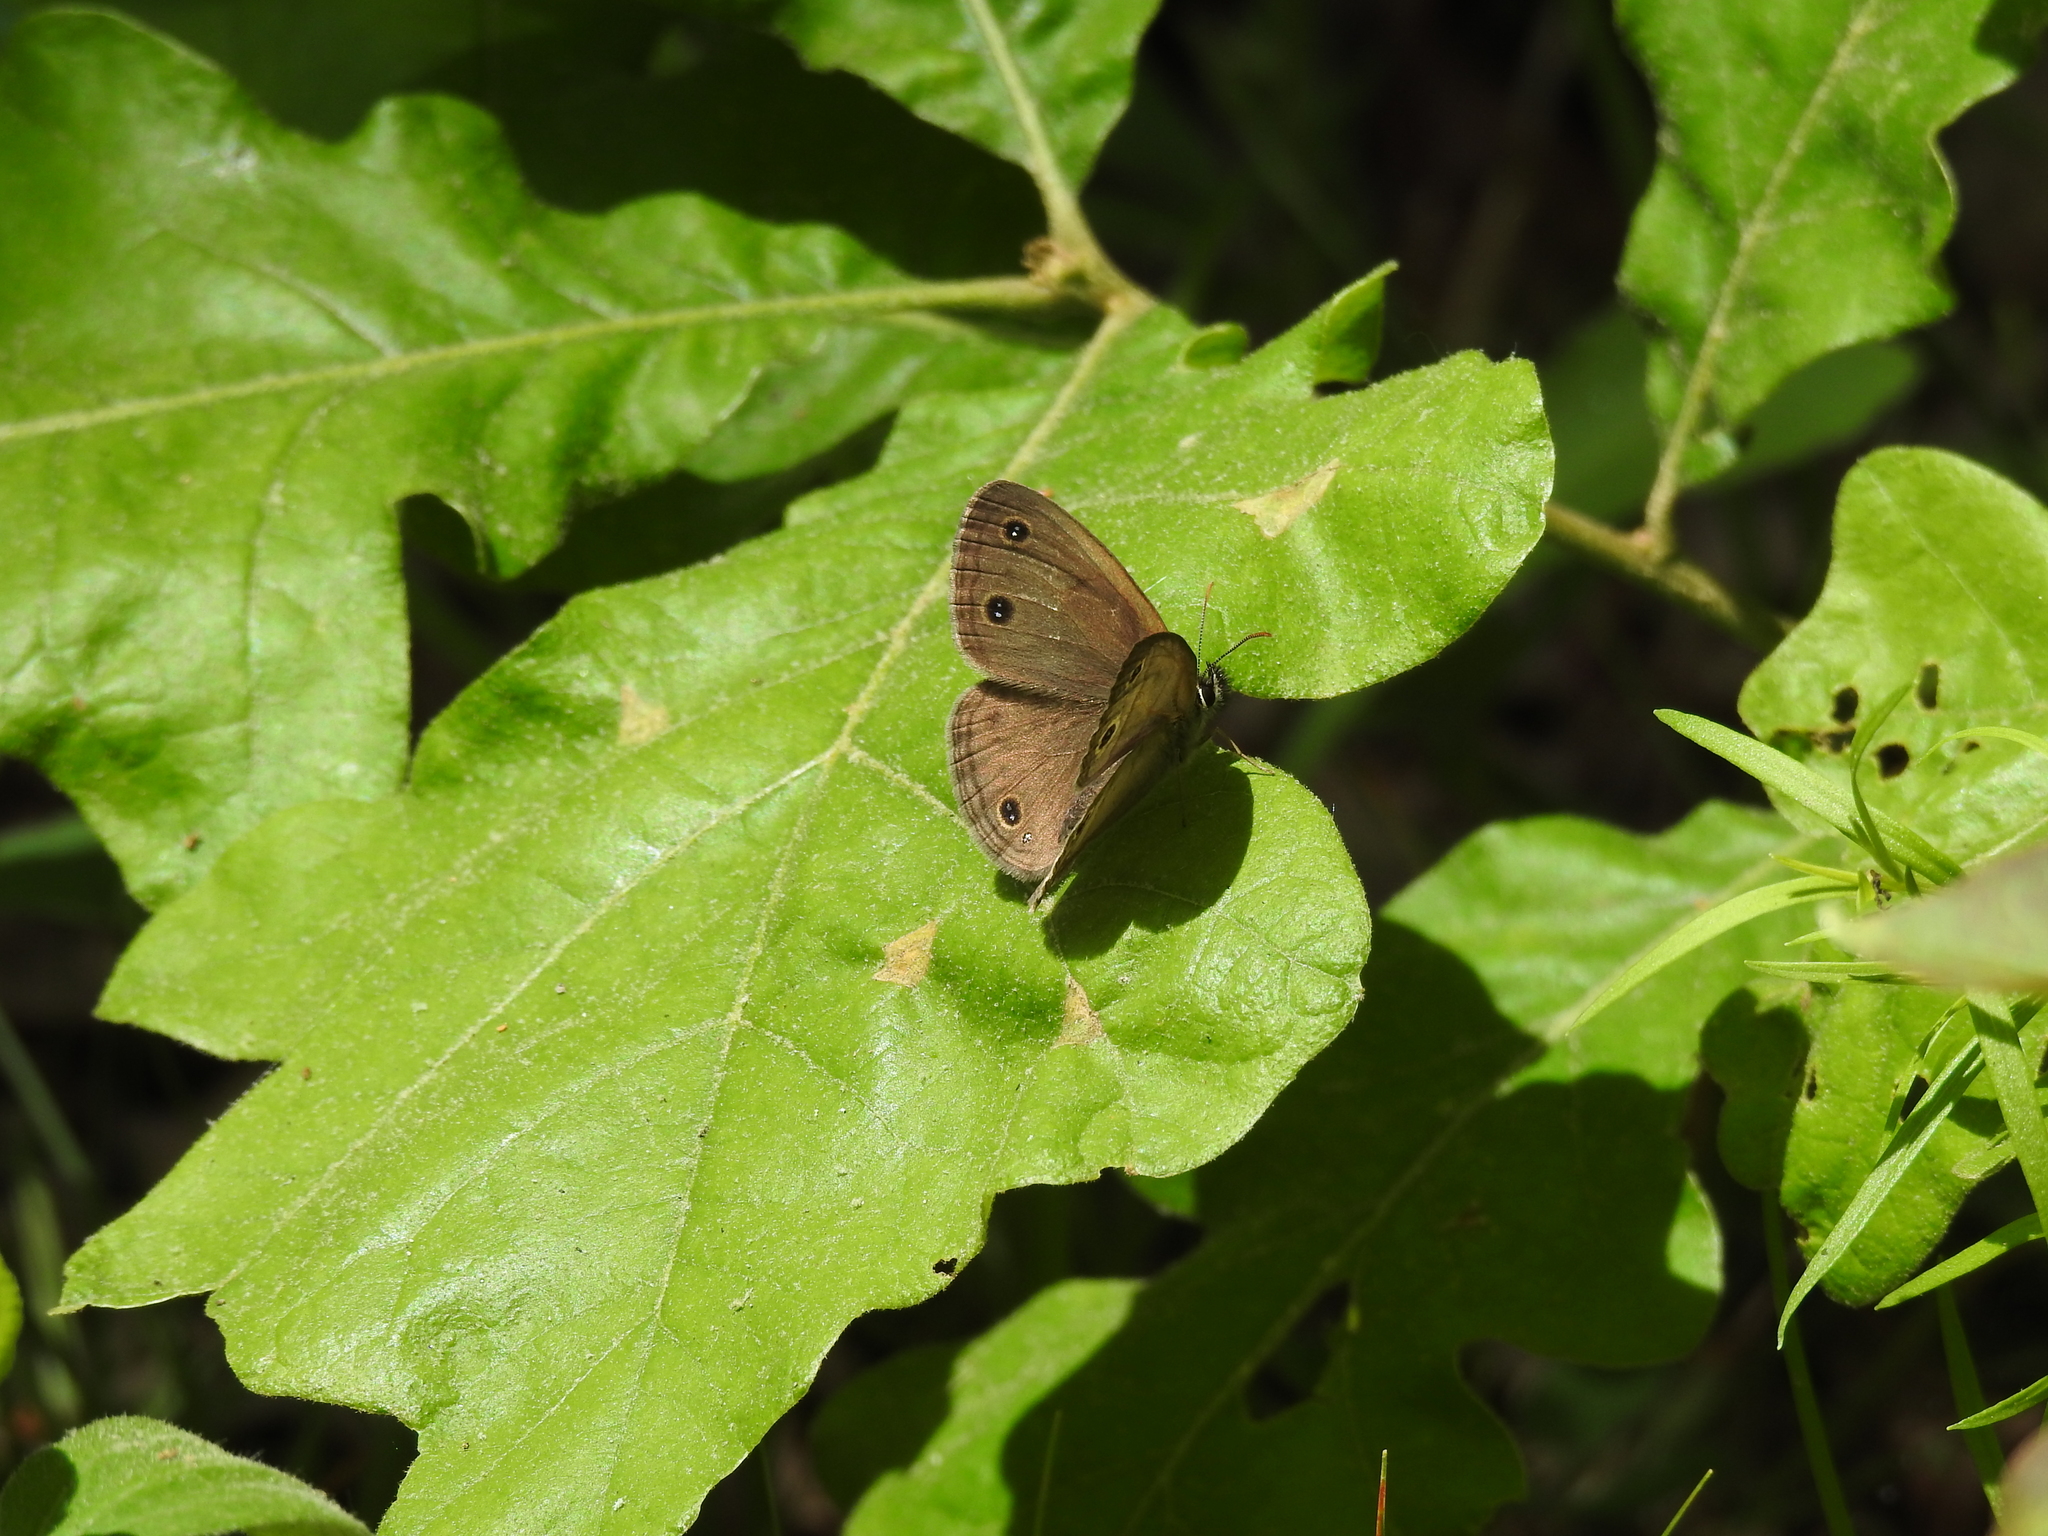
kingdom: Animalia
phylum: Arthropoda
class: Insecta
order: Lepidoptera
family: Nymphalidae
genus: Euptychia
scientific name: Euptychia cymela
